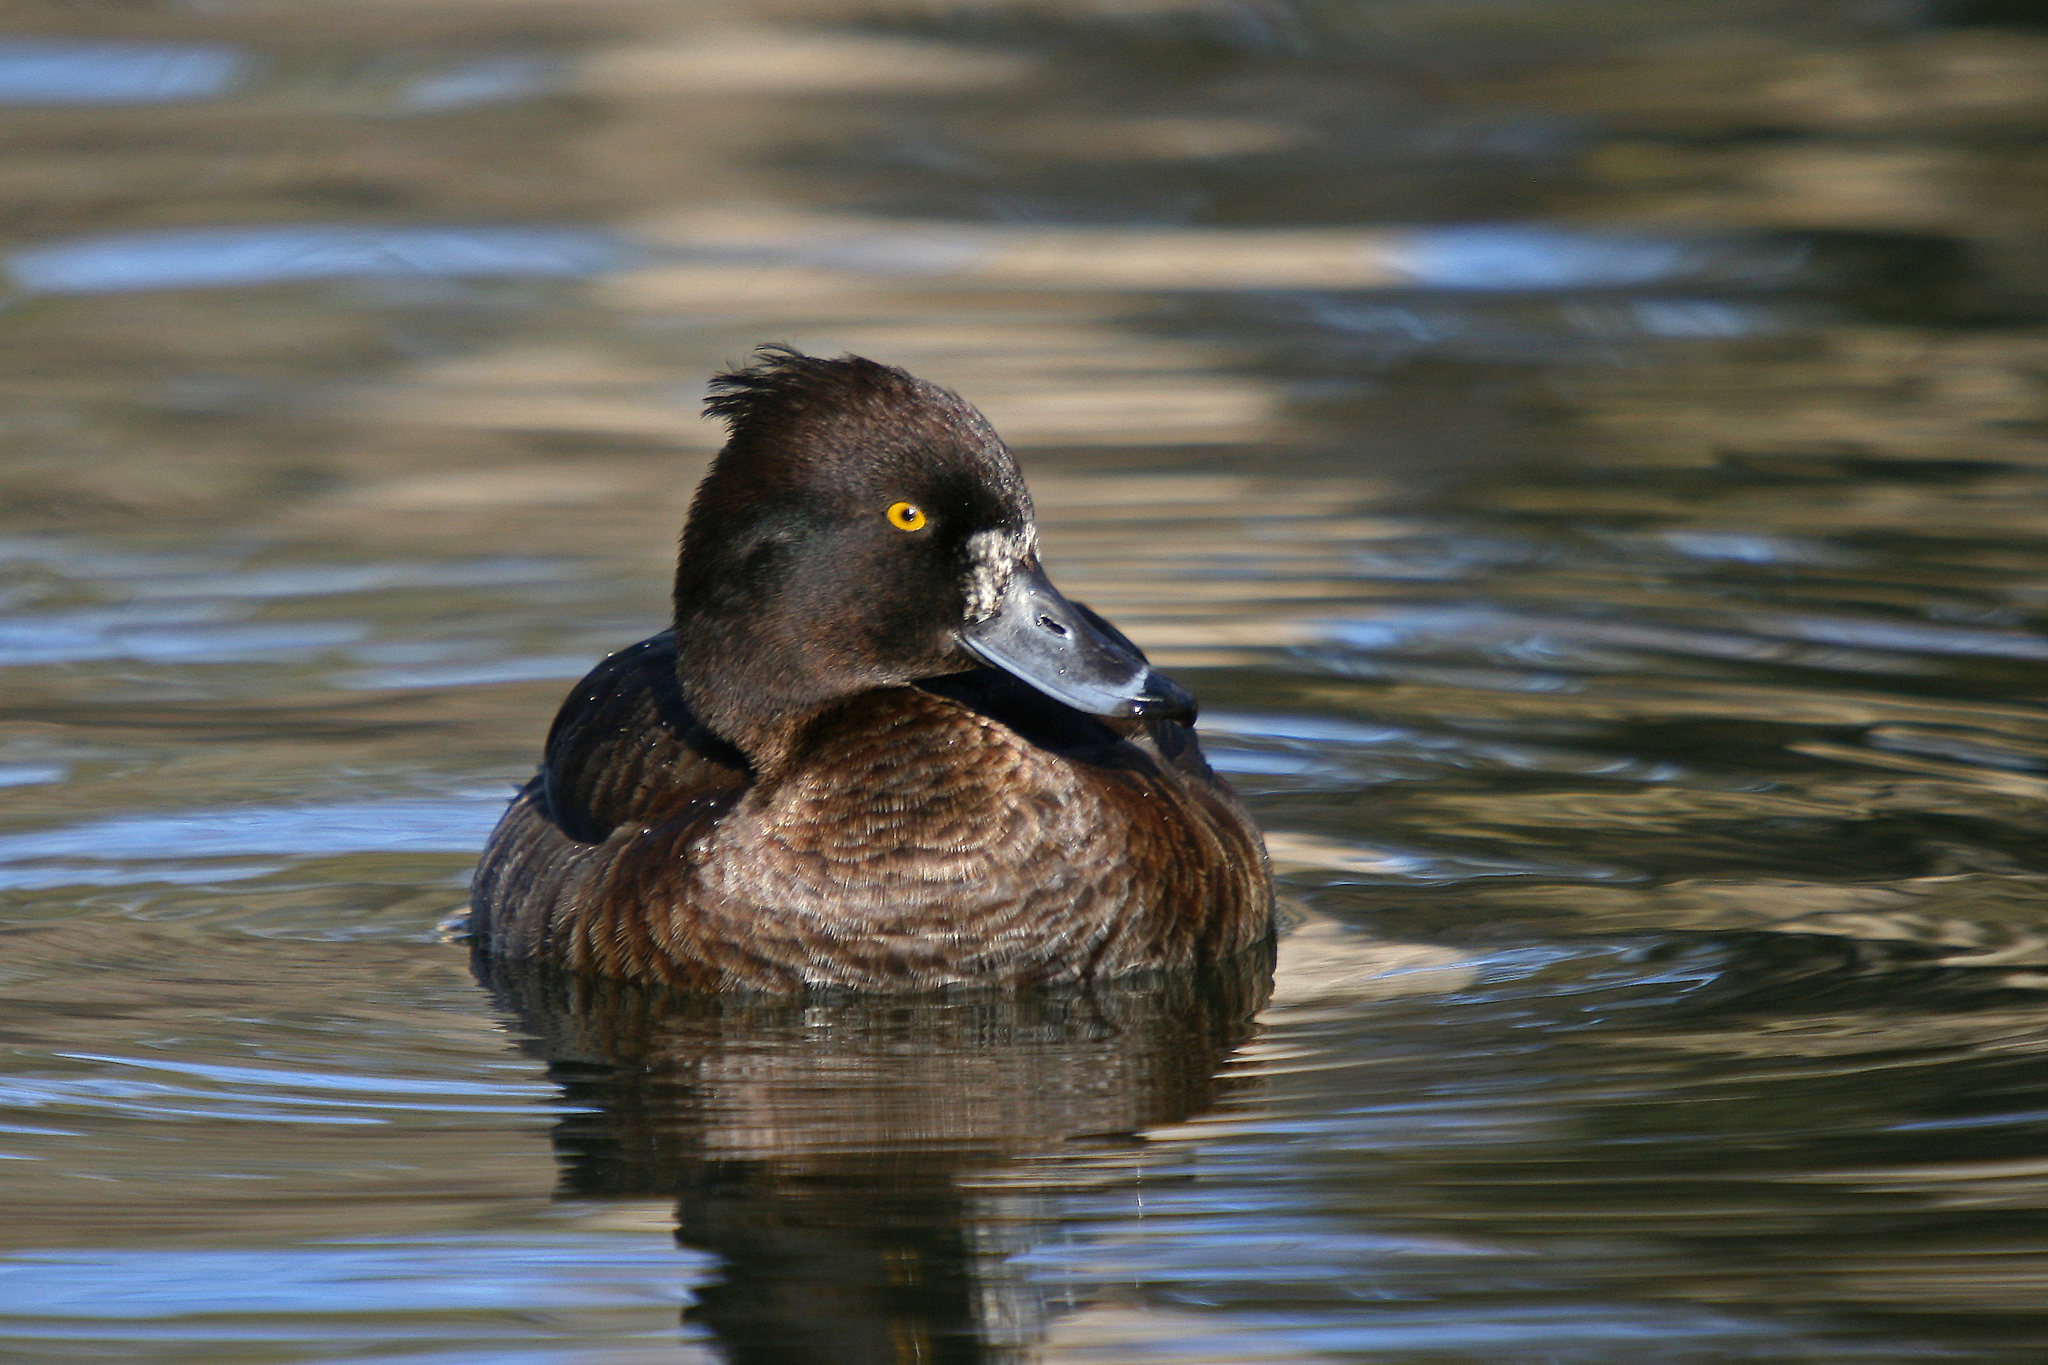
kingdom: Animalia
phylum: Chordata
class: Aves
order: Anseriformes
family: Anatidae
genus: Aythya
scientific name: Aythya fuligula
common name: Tufted duck
